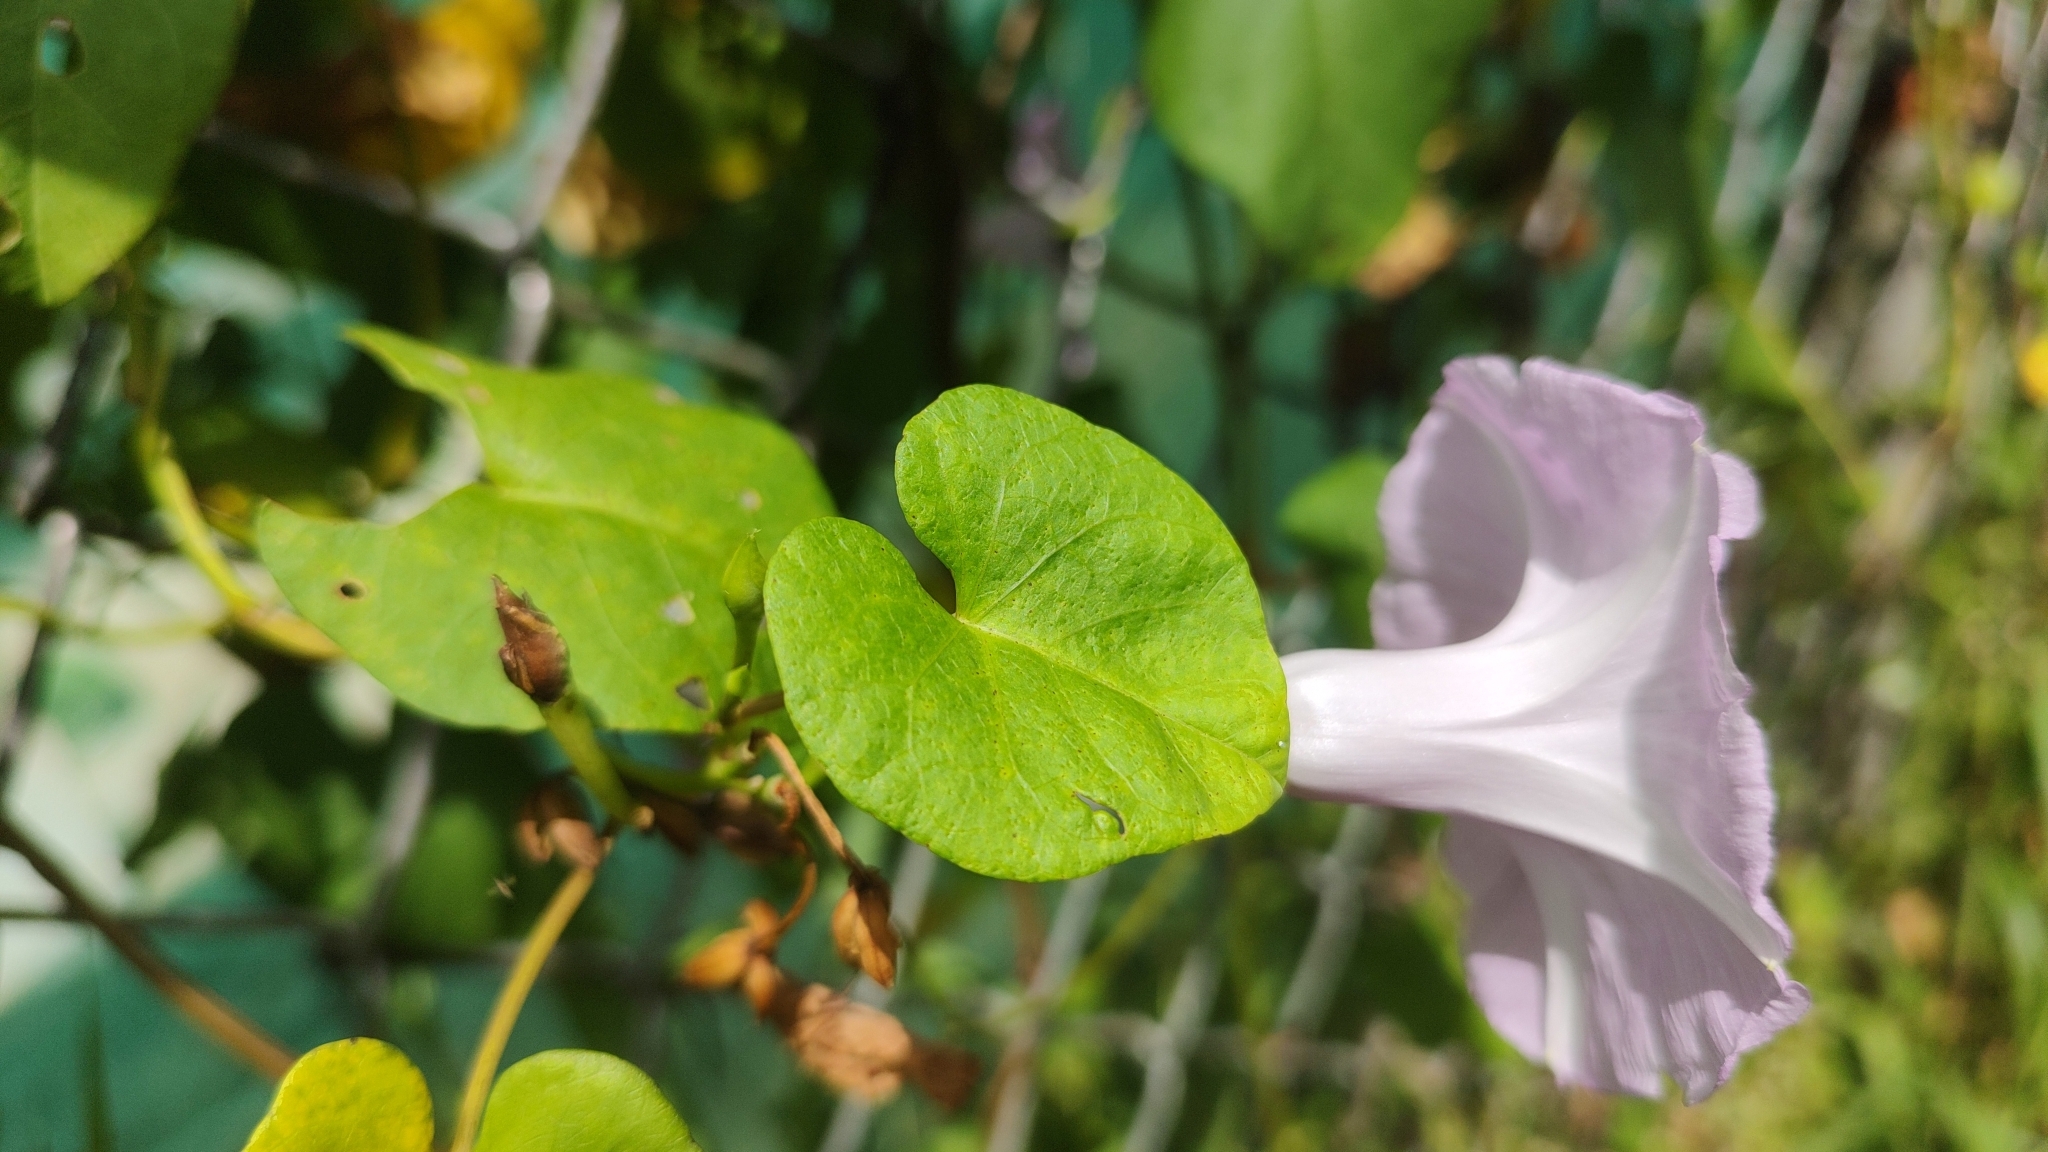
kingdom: Plantae
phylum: Tracheophyta
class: Magnoliopsida
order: Solanales
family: Convolvulaceae
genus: Ipomoea
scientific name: Ipomoea littoralis
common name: Coastal morning glory
